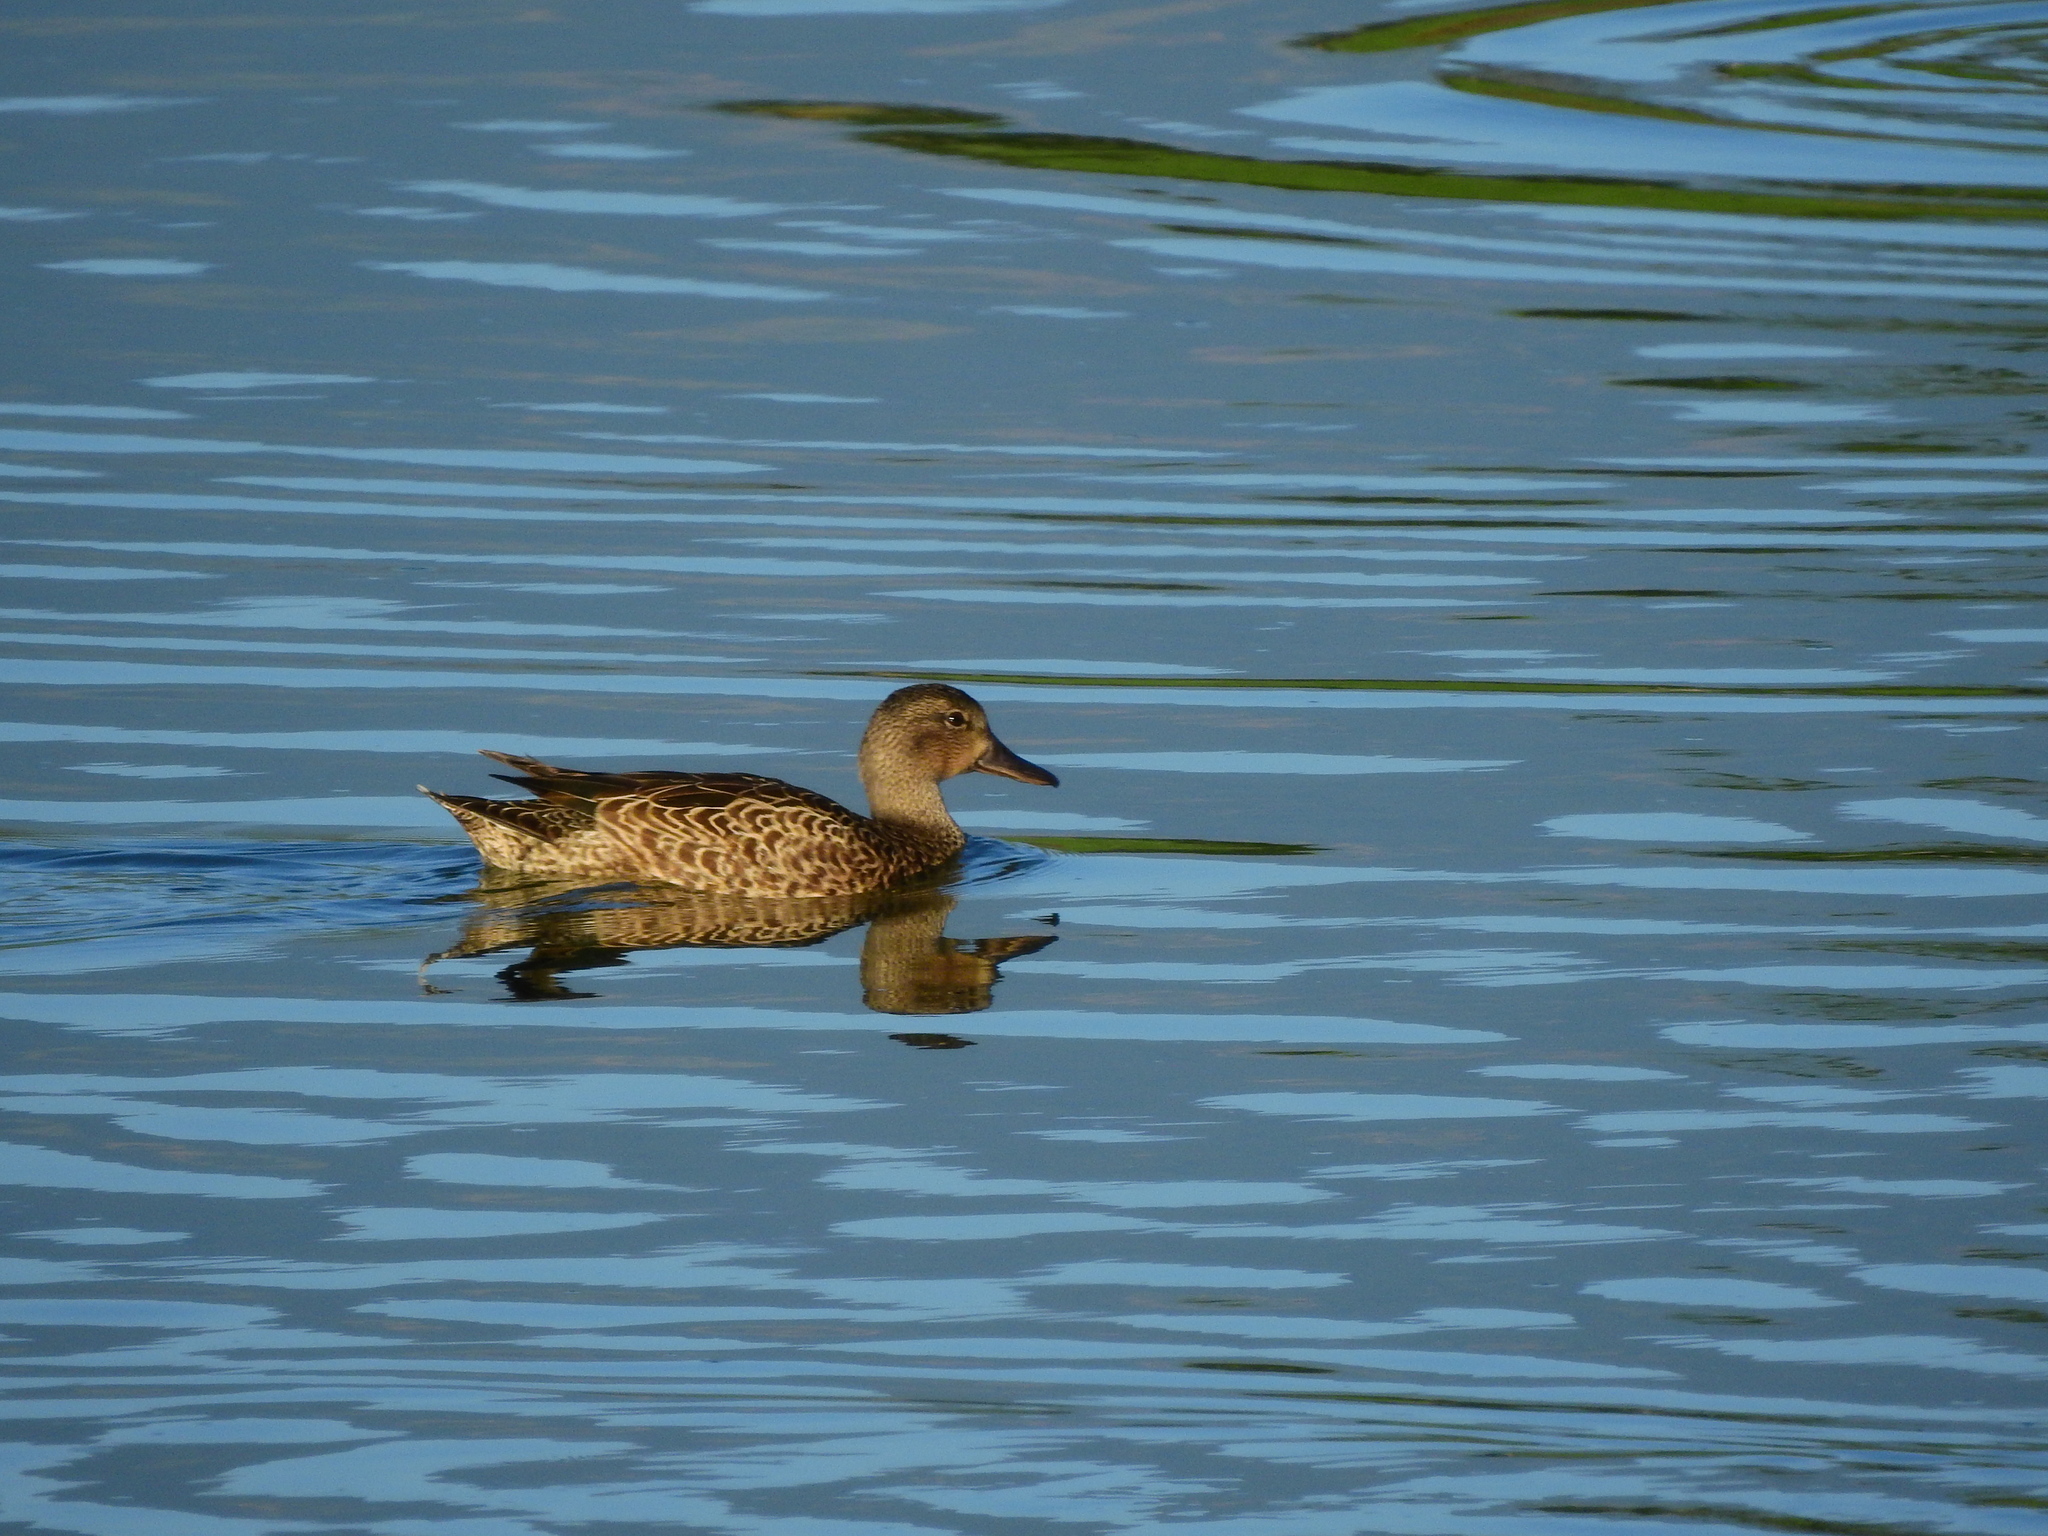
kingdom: Animalia
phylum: Chordata
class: Aves
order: Anseriformes
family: Anatidae
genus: Spatula
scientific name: Spatula discors
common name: Blue-winged teal
